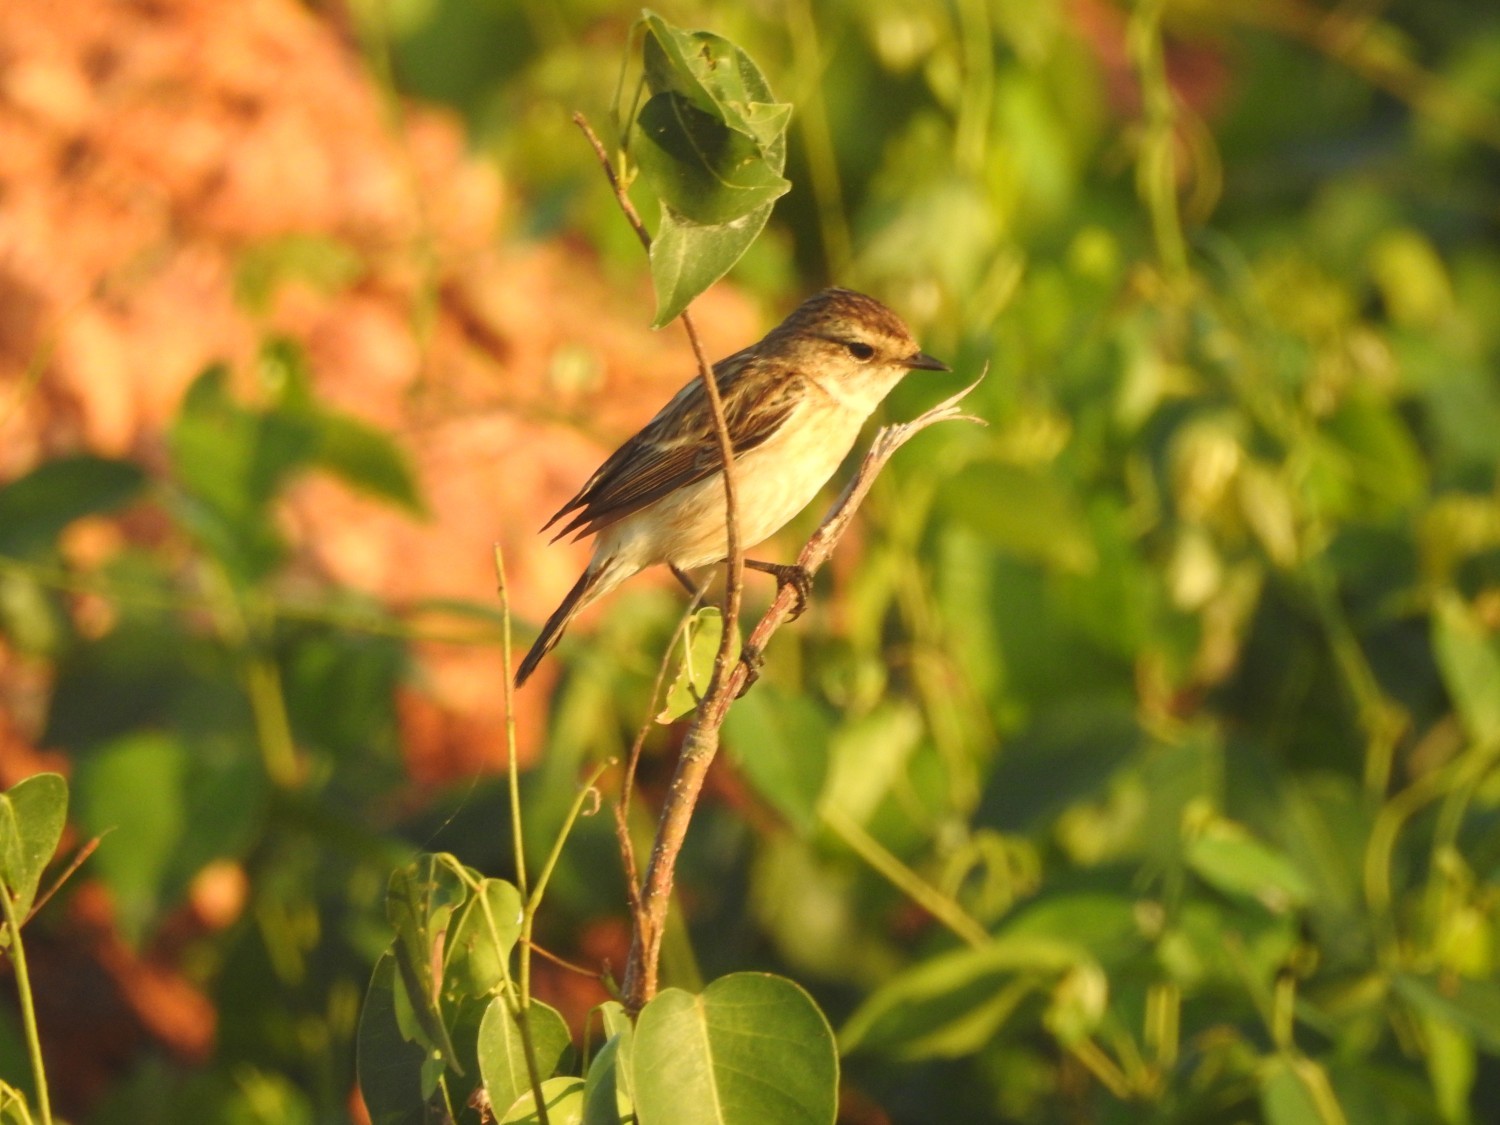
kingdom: Animalia
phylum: Chordata
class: Aves
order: Passeriformes
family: Muscicapidae
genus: Saxicola
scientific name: Saxicola maurus
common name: Siberian stonechat
